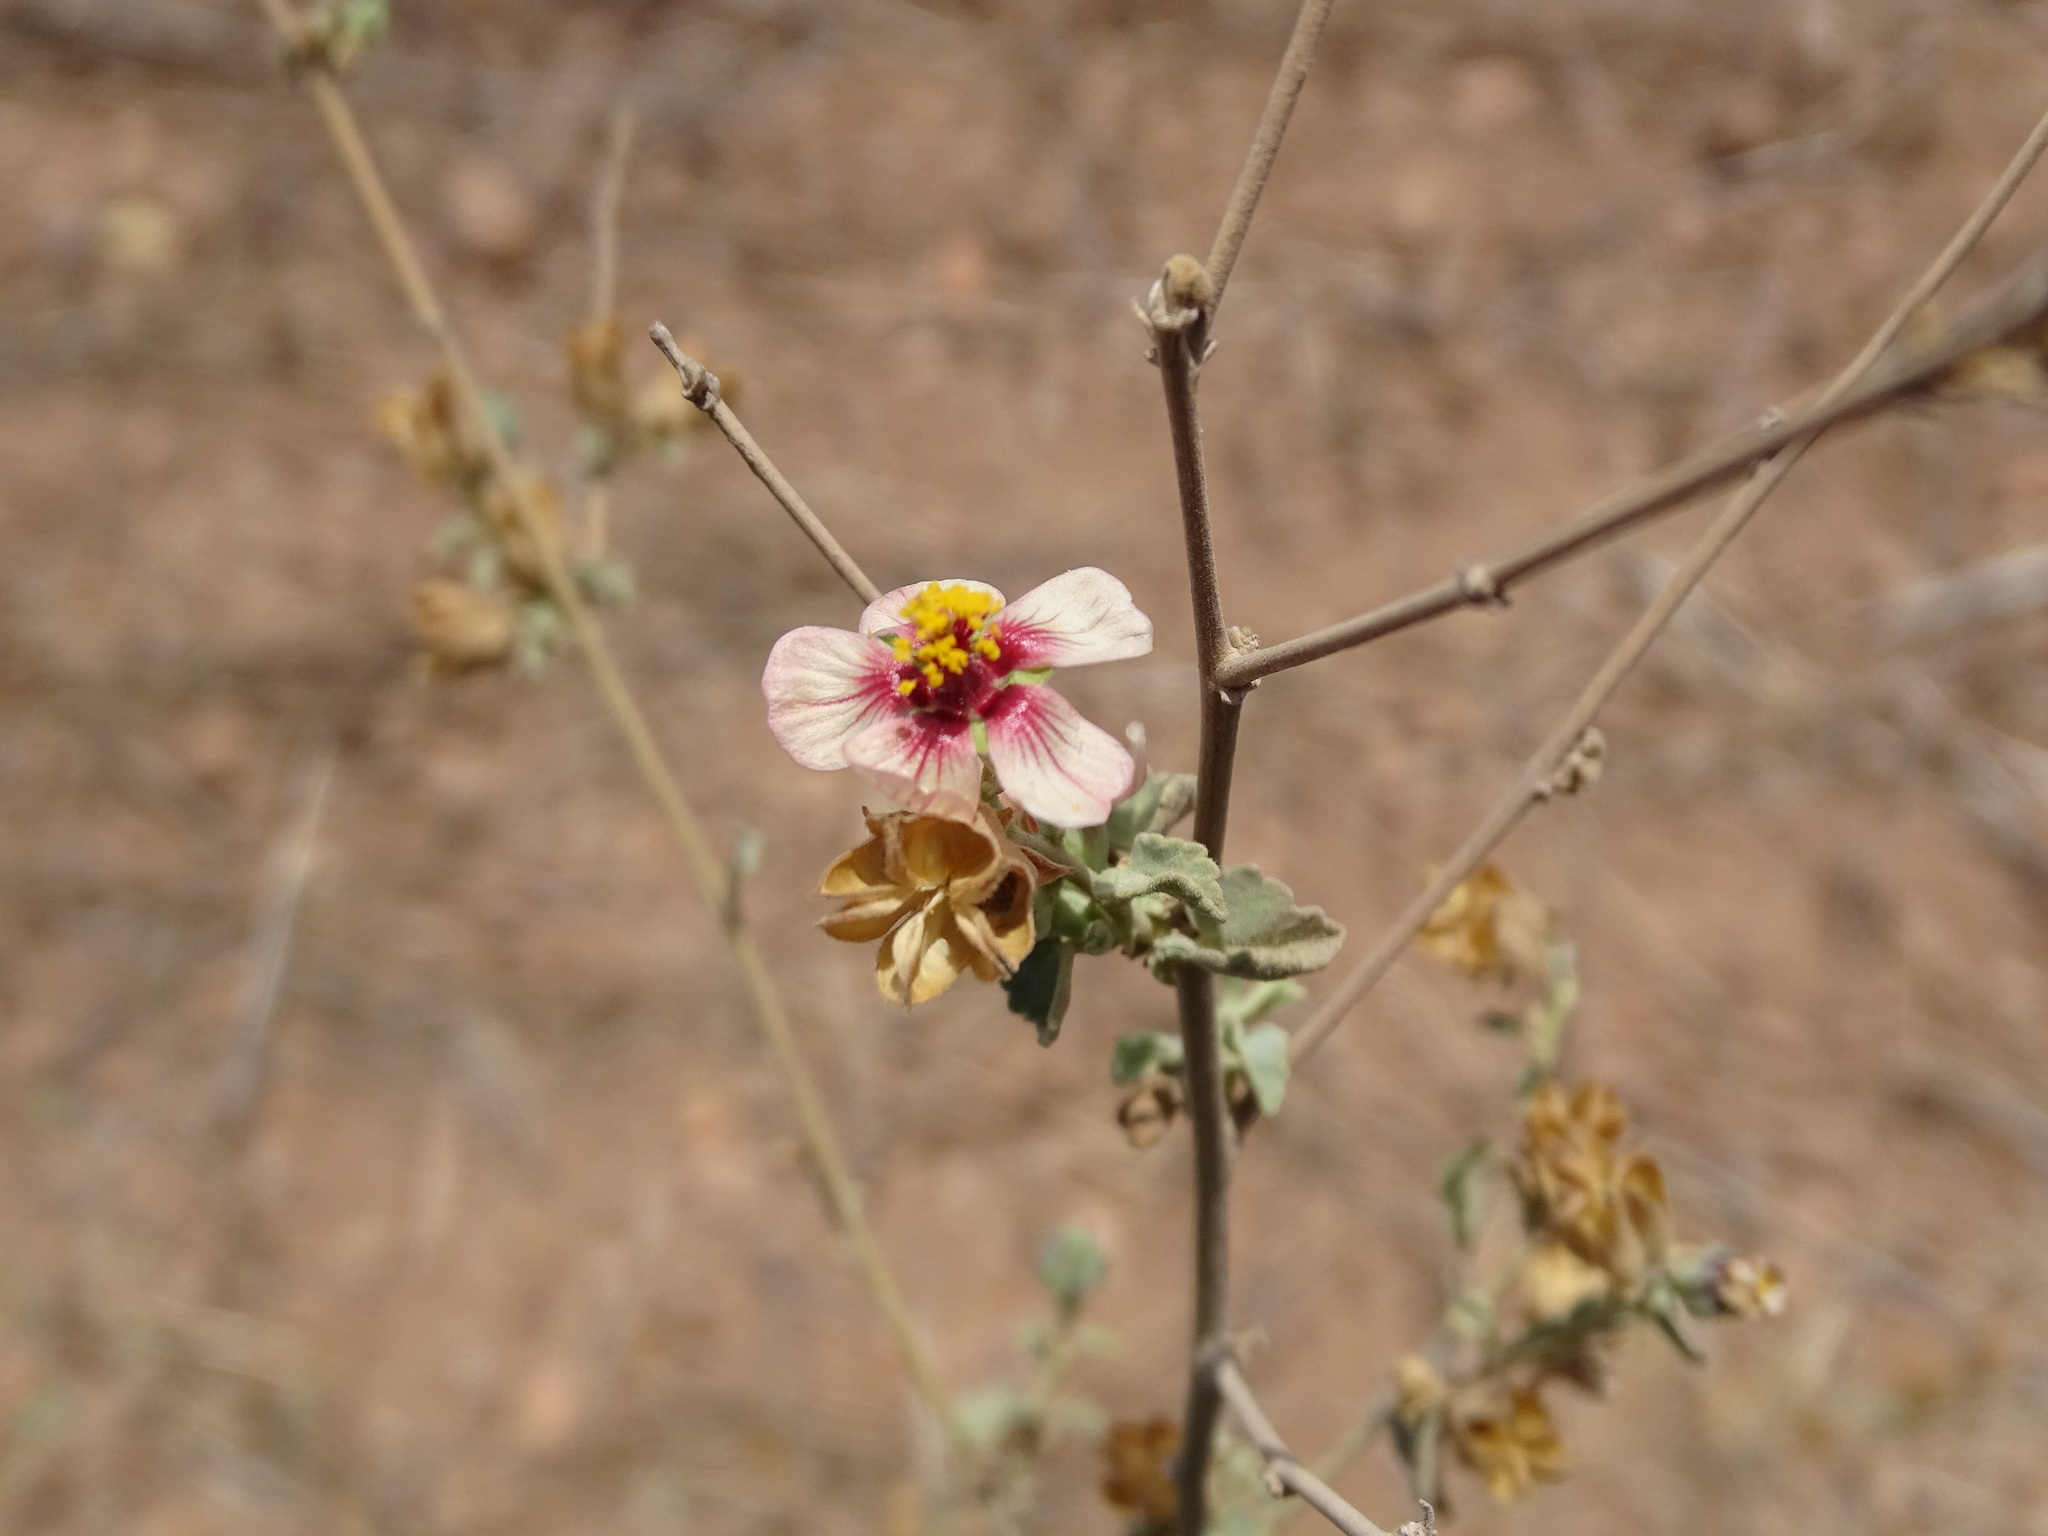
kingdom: Plantae
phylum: Tracheophyta
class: Magnoliopsida
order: Malvales
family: Malvaceae
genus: Abutilon
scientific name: Abutilon incanum
